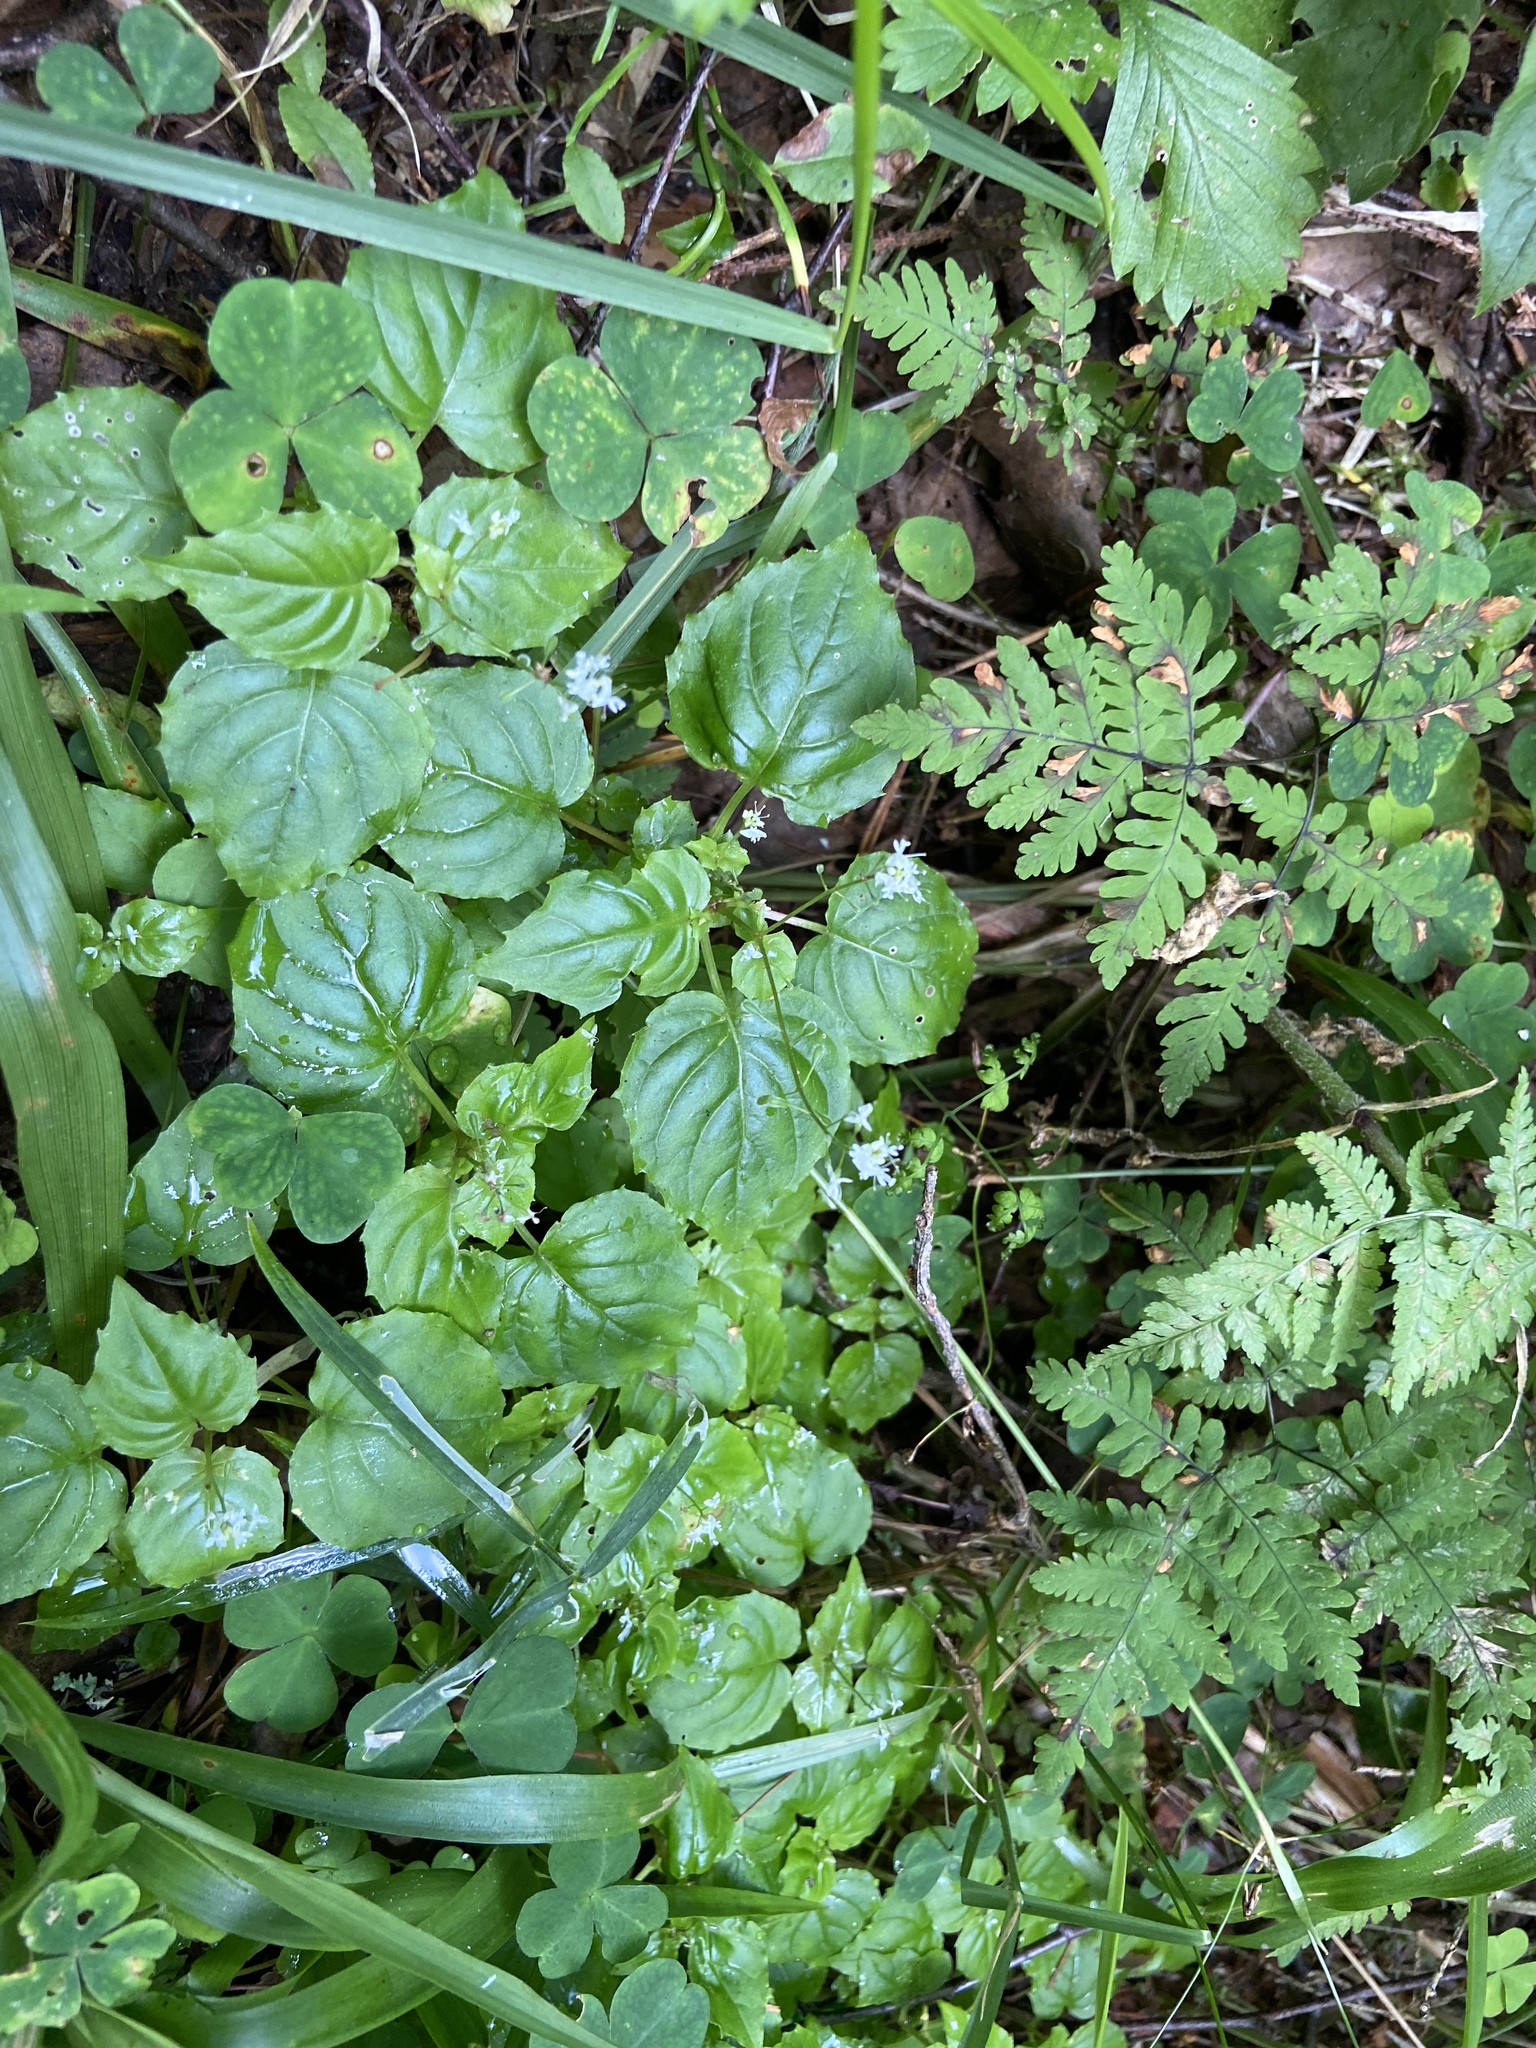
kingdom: Plantae
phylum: Tracheophyta
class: Magnoliopsida
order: Myrtales
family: Onagraceae
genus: Circaea
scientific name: Circaea alpina
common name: Alpine enchanter's-nightshade
